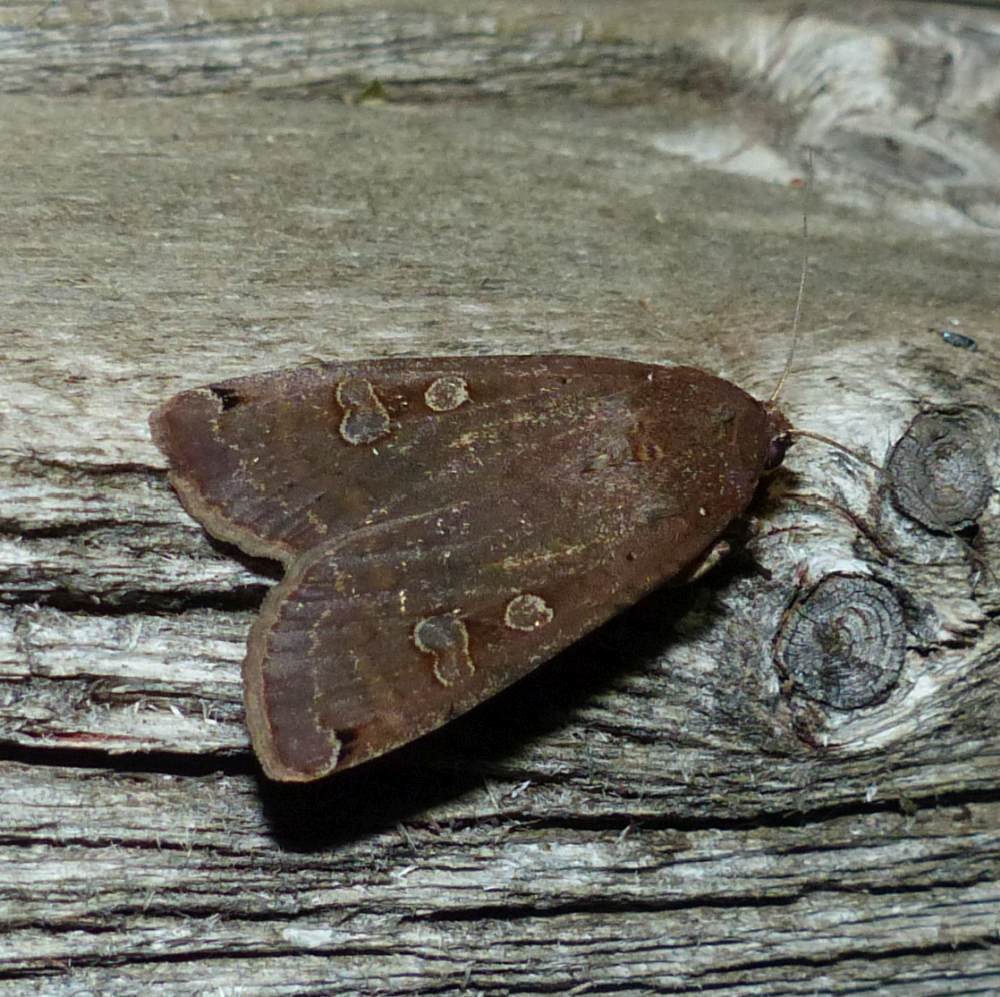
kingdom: Animalia
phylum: Arthropoda
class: Insecta
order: Lepidoptera
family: Noctuidae
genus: Noctua
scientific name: Noctua pronuba
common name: Large yellow underwing
